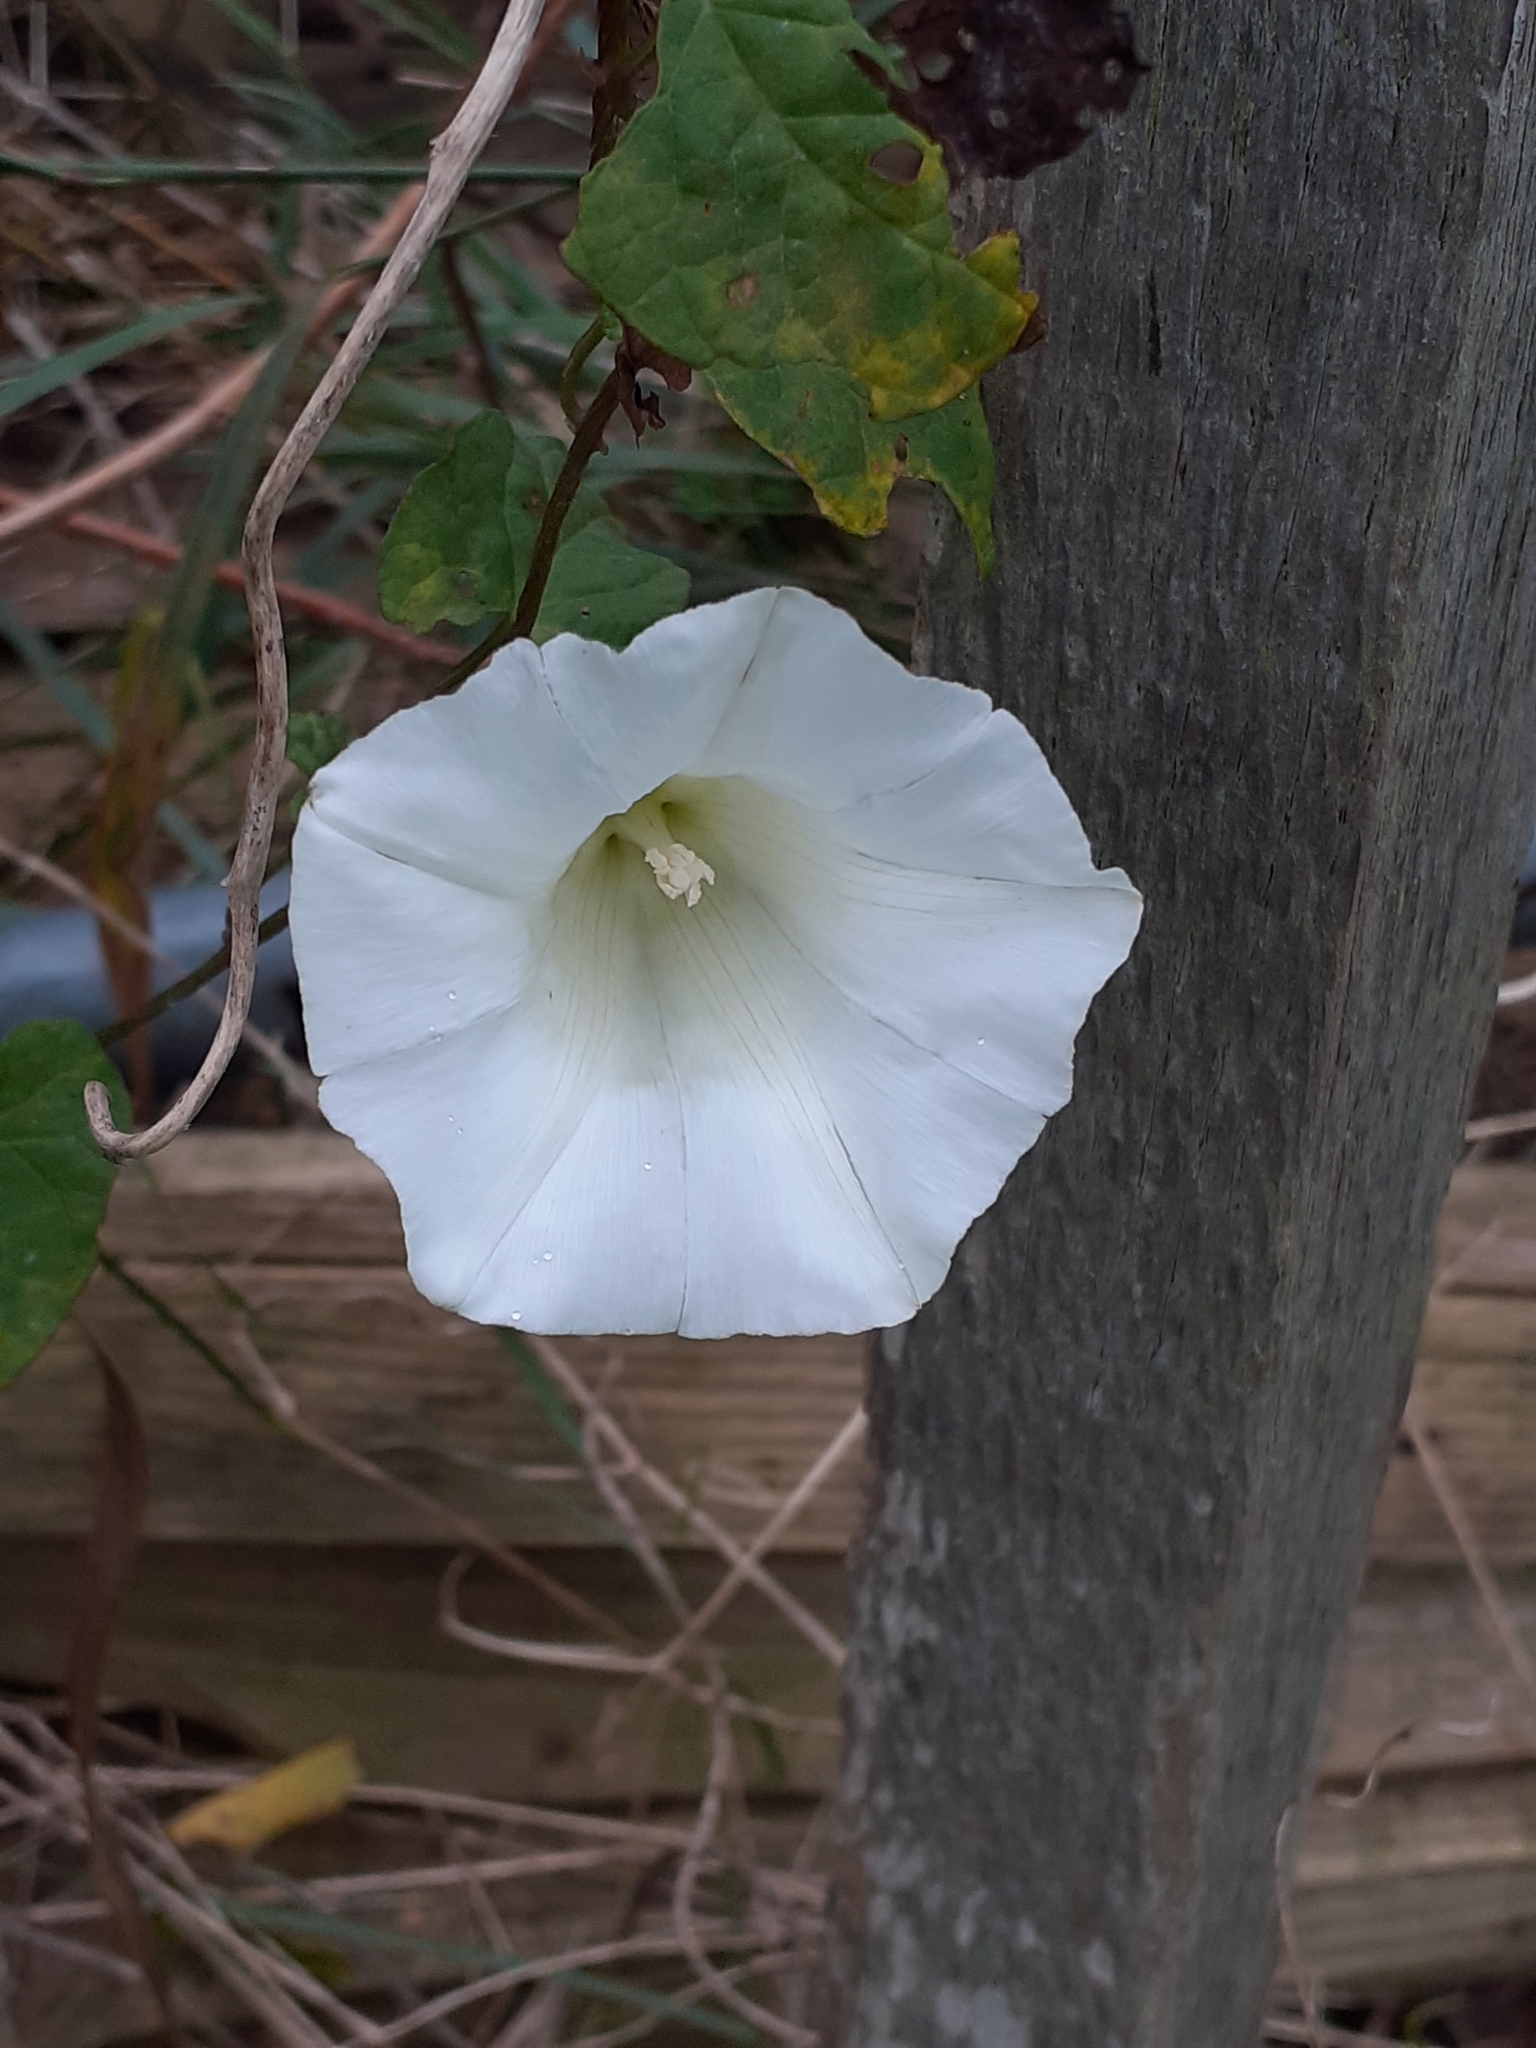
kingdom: Plantae
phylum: Tracheophyta
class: Magnoliopsida
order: Solanales
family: Convolvulaceae
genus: Calystegia
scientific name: Calystegia
